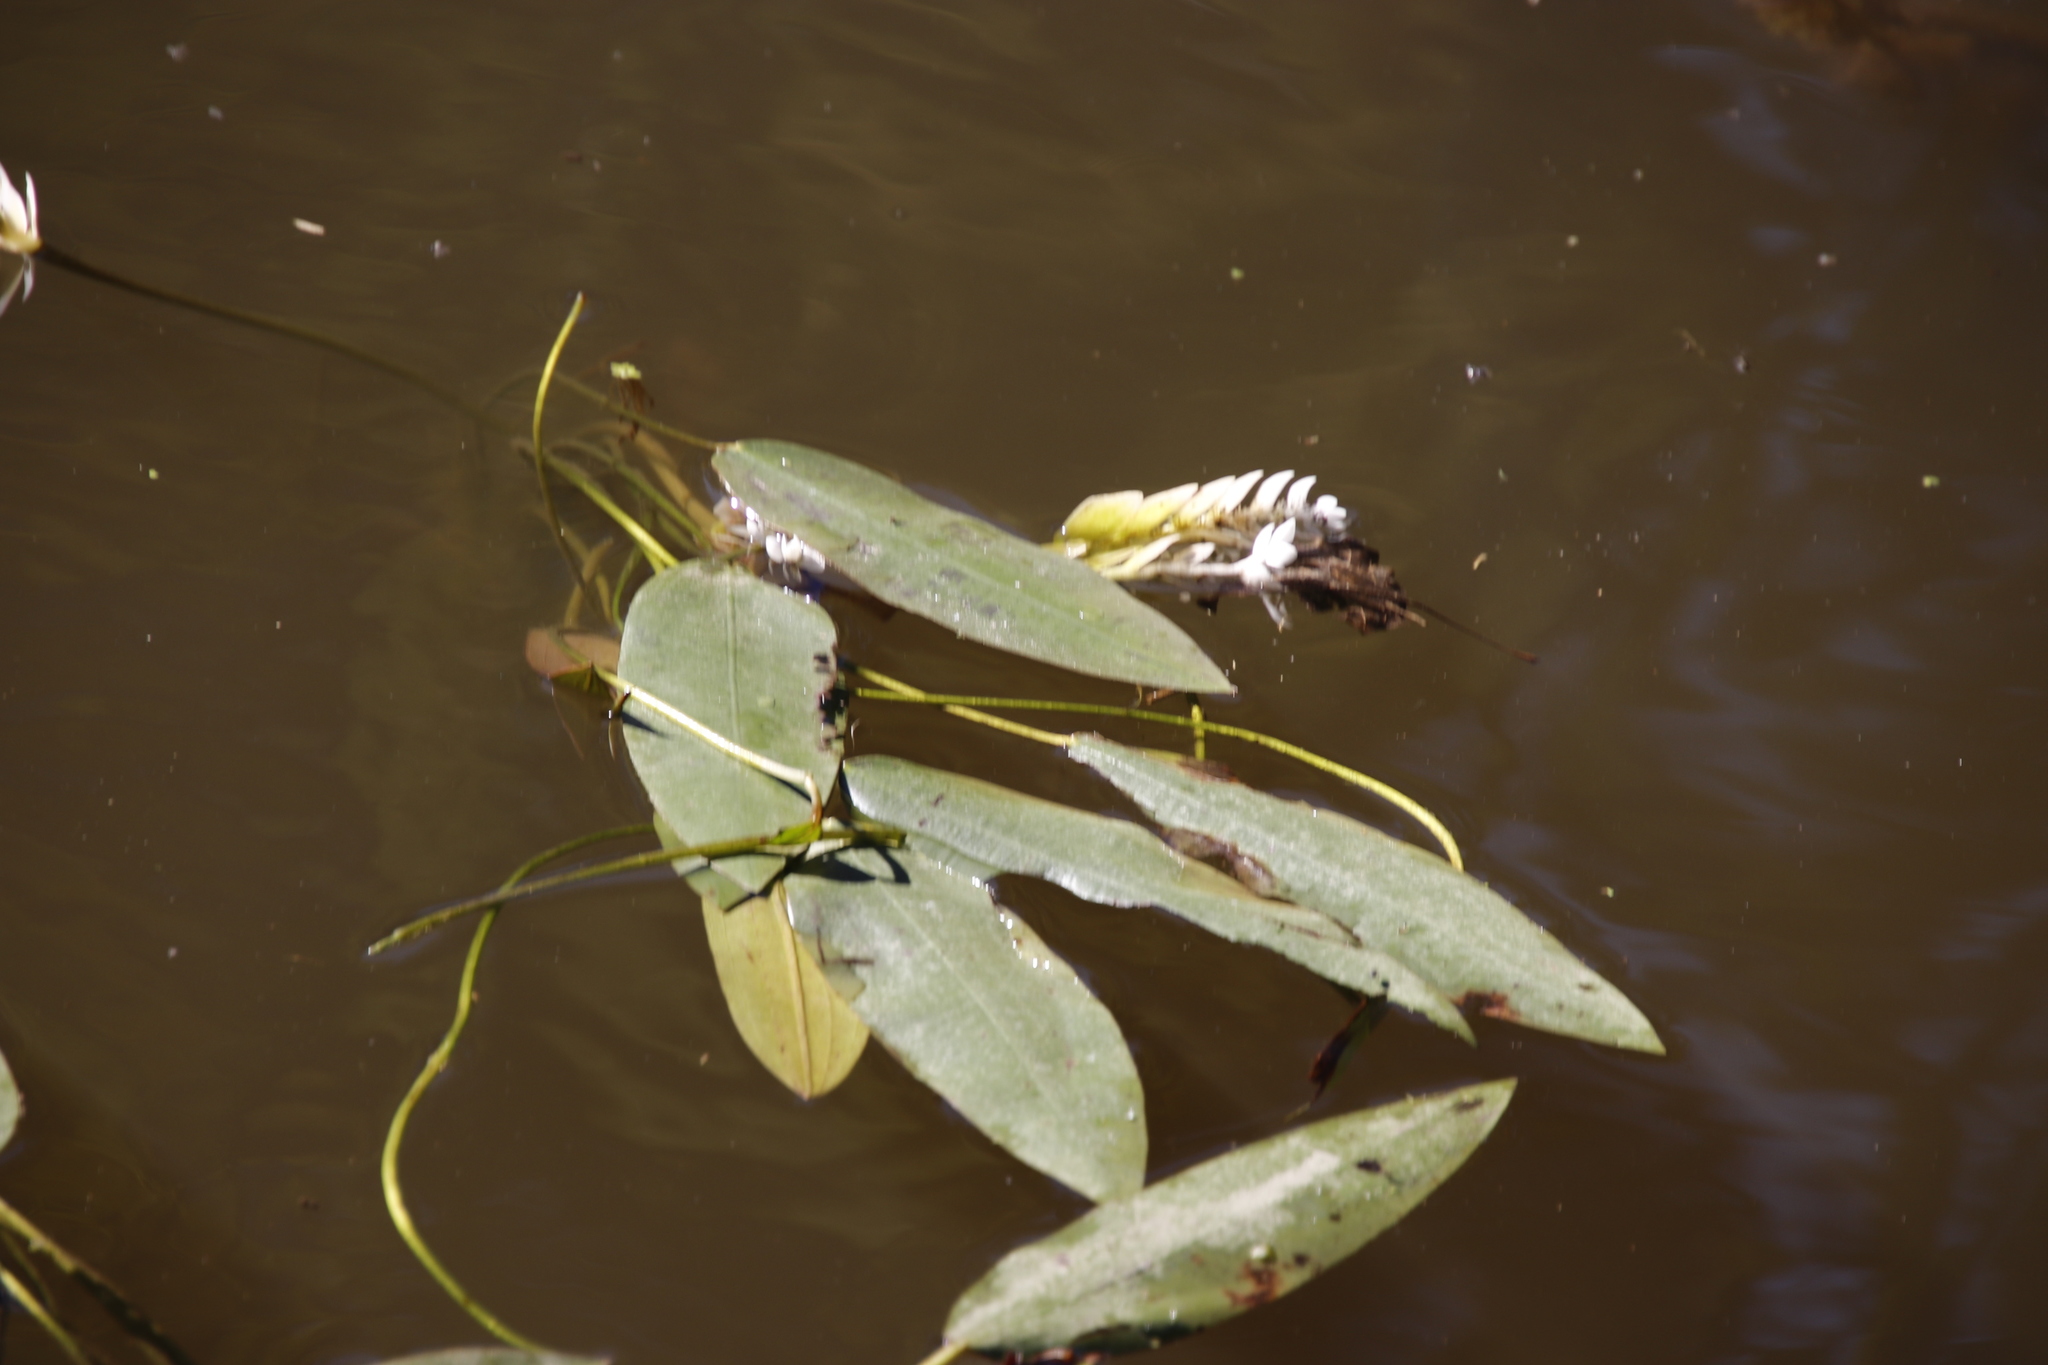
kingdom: Plantae
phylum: Tracheophyta
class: Liliopsida
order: Alismatales
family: Aponogetonaceae
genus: Aponogeton
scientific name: Aponogeton distachyos
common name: Cape-pondweed
